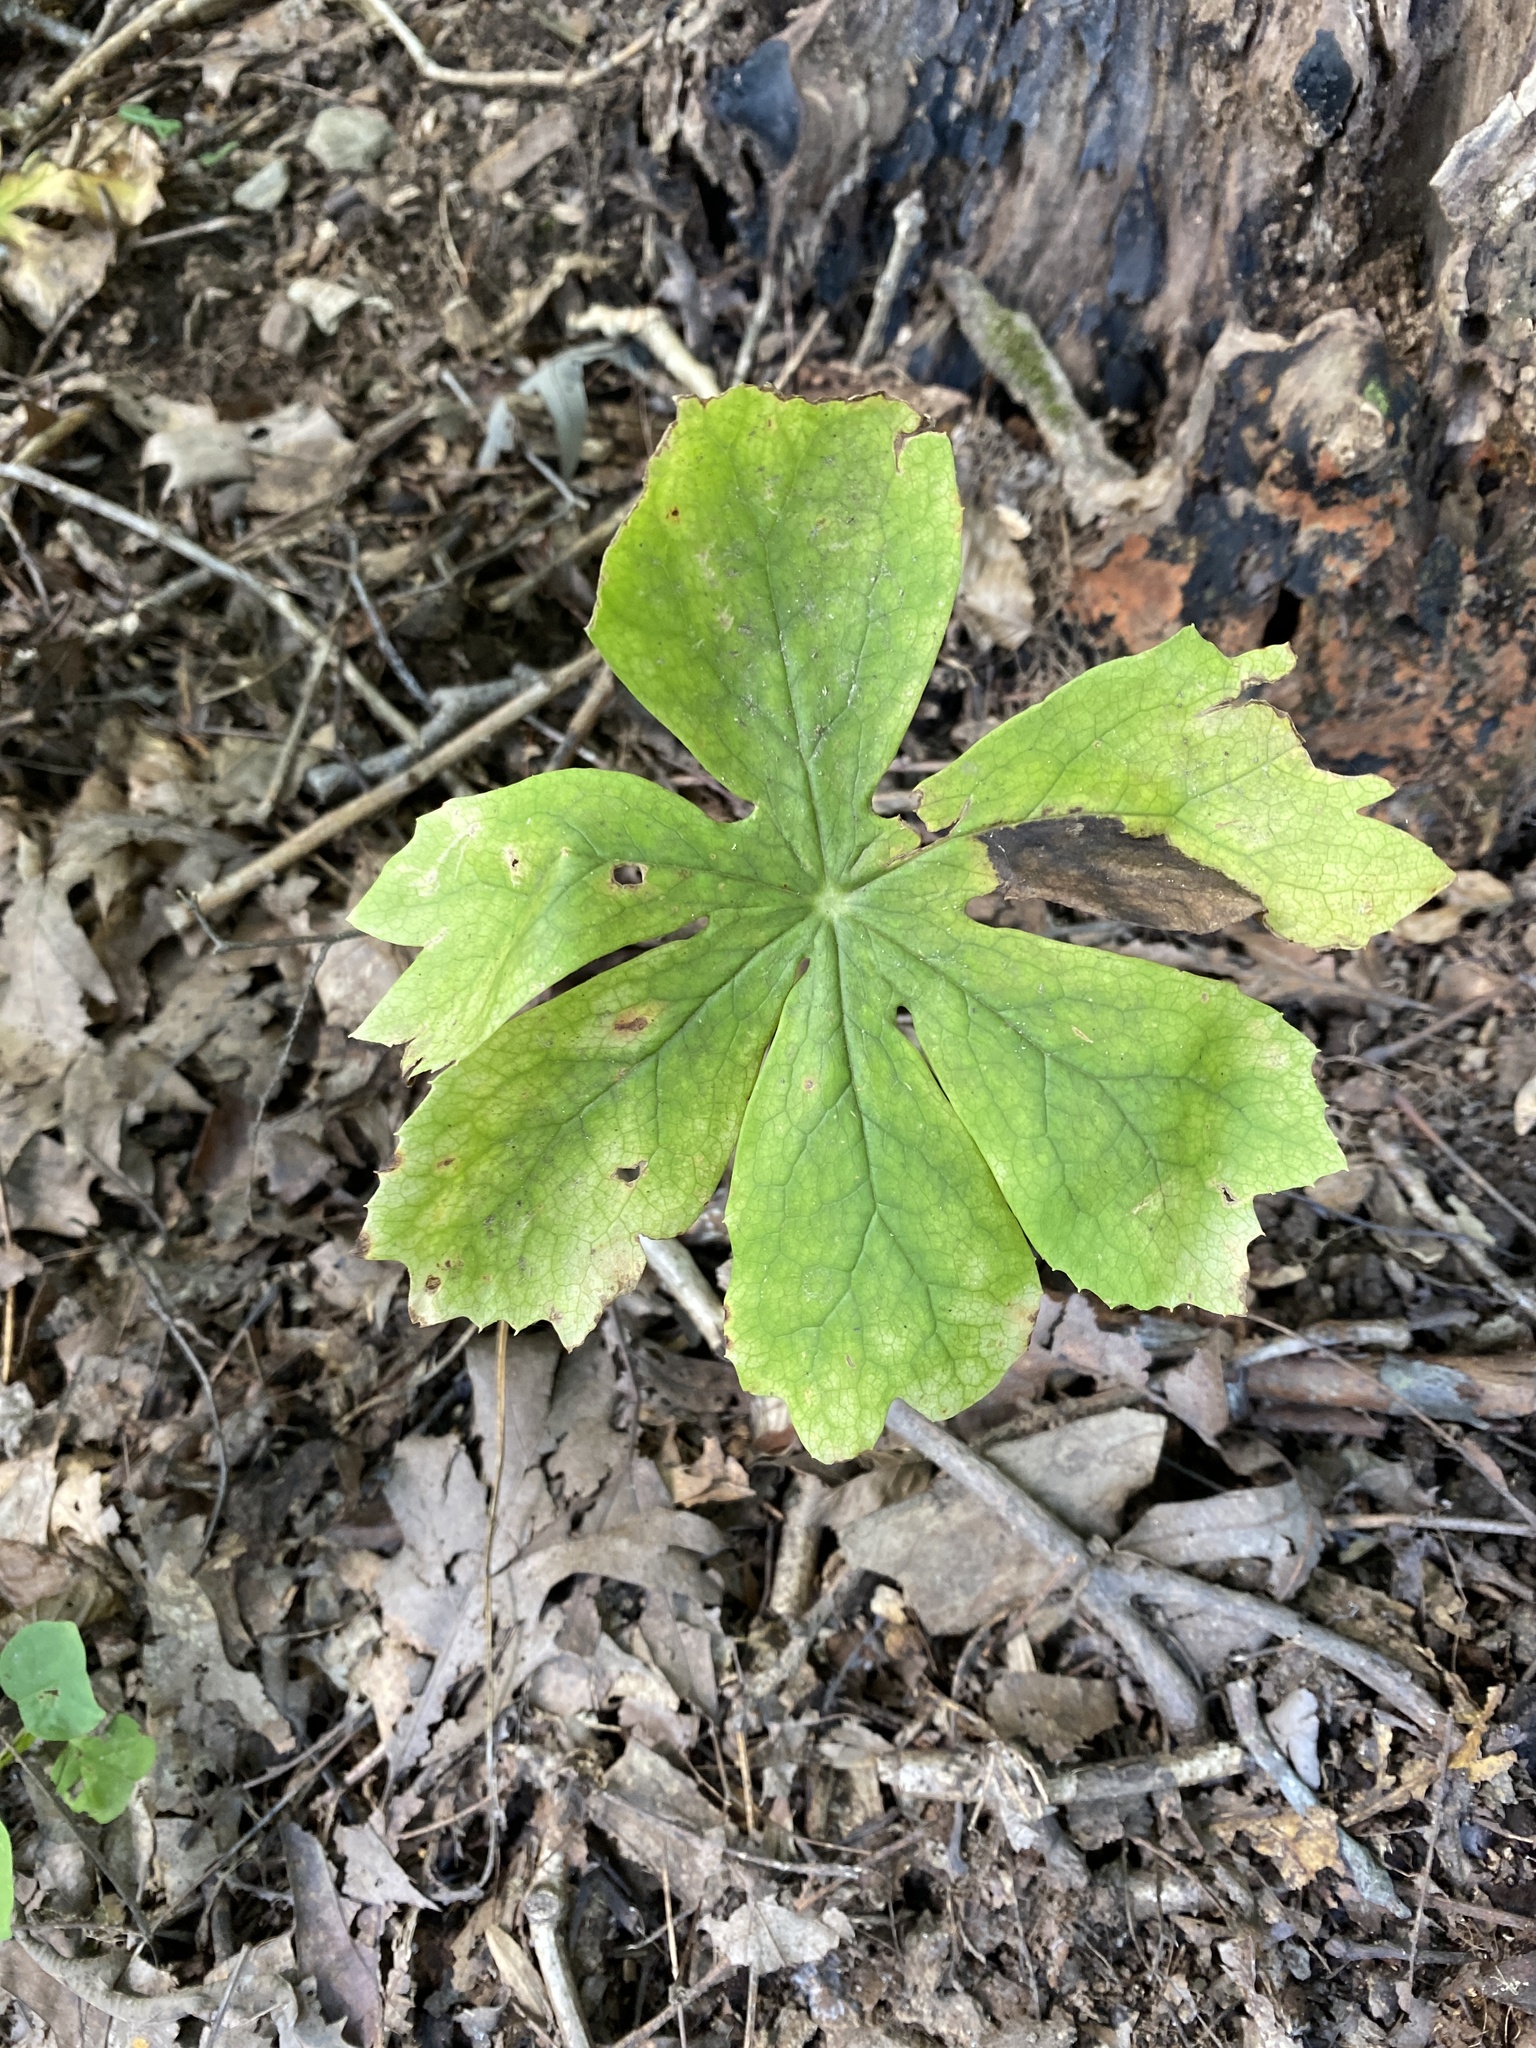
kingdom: Plantae
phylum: Tracheophyta
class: Magnoliopsida
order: Ranunculales
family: Berberidaceae
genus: Podophyllum
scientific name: Podophyllum peltatum
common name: Wild mandrake
